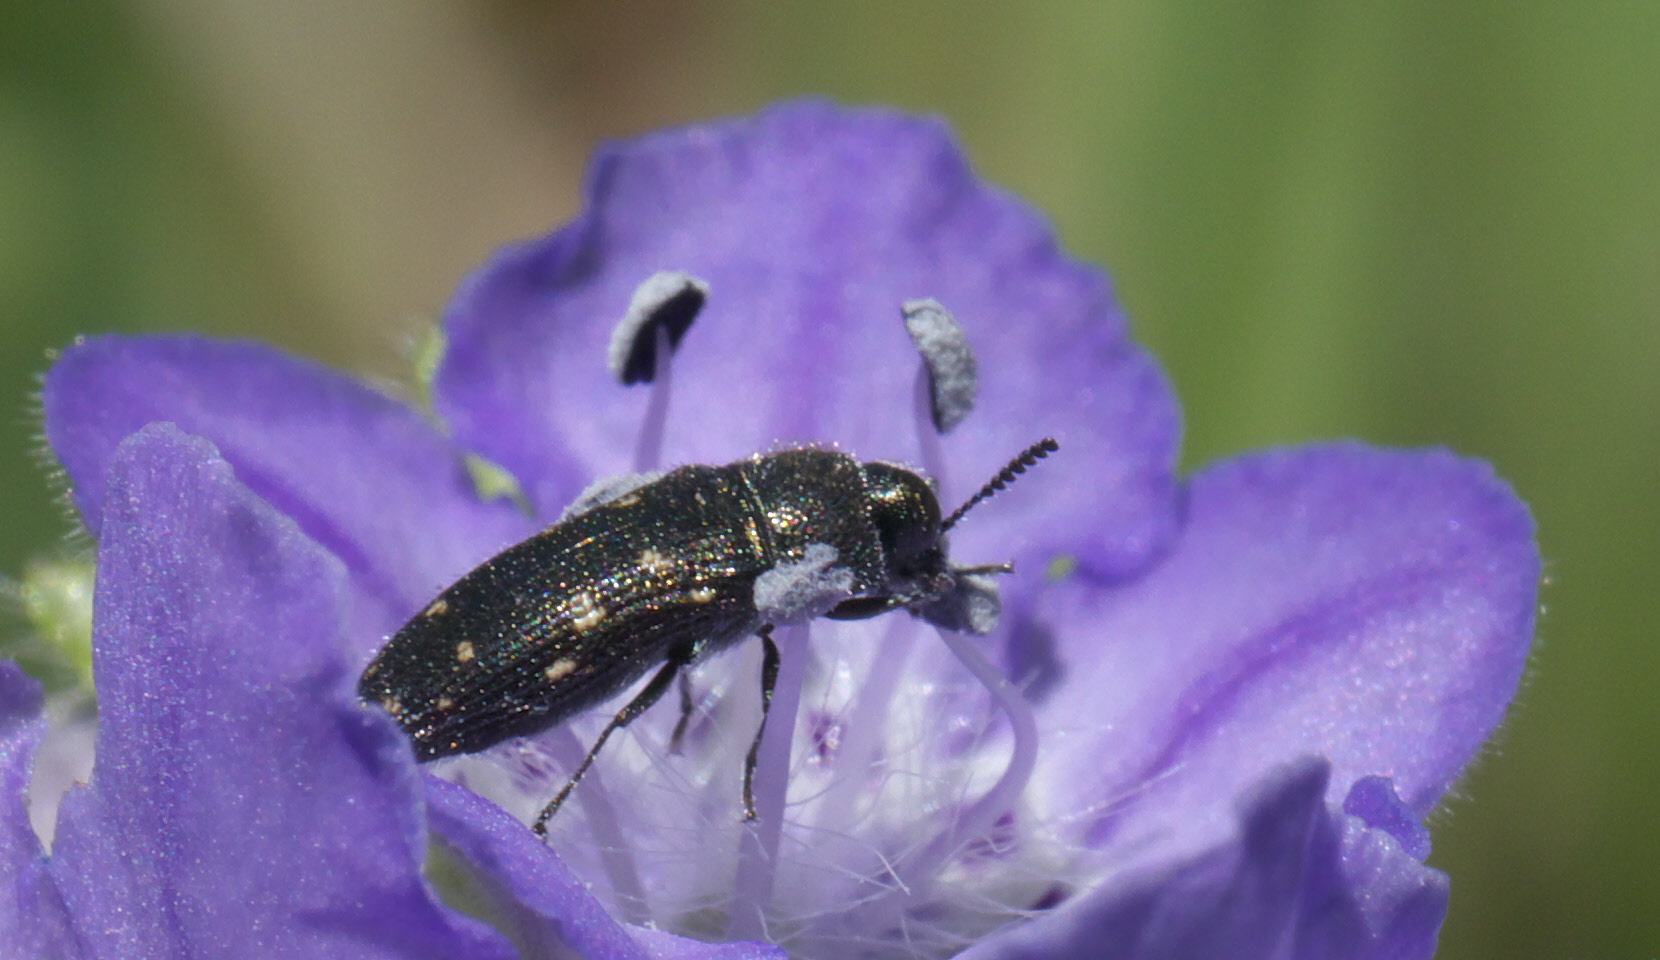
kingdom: Animalia
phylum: Arthropoda
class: Insecta
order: Coleoptera
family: Buprestidae
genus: Acmaeodera
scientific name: Acmaeodera tubulus
